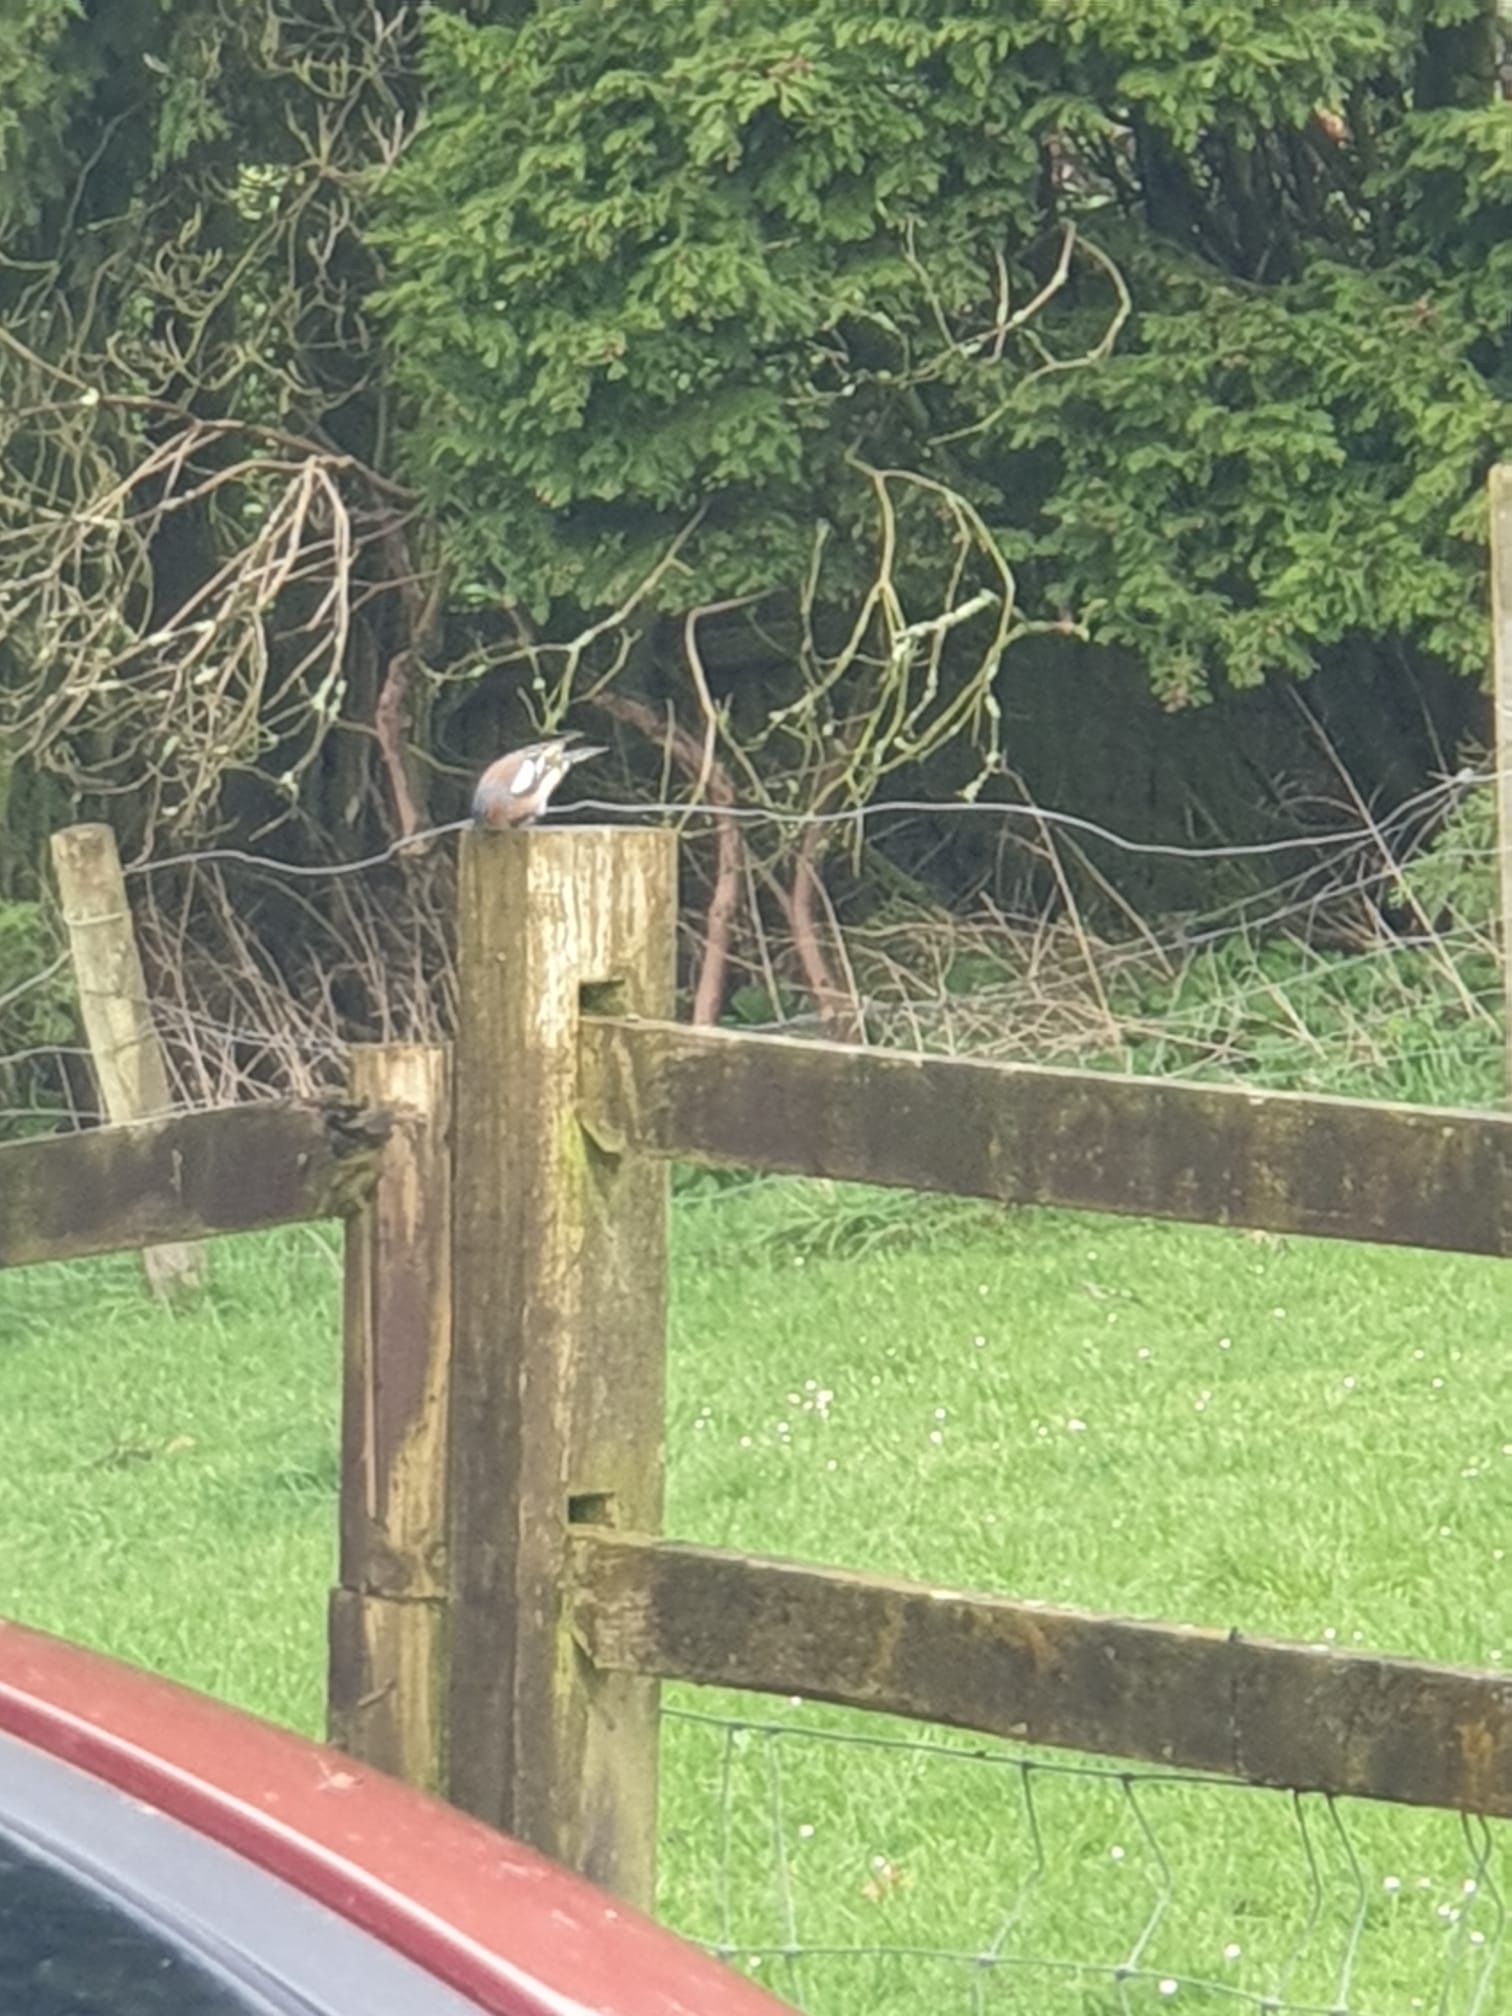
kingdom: Animalia
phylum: Chordata
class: Aves
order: Passeriformes
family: Fringillidae
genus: Fringilla
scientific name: Fringilla coelebs
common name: Common chaffinch
